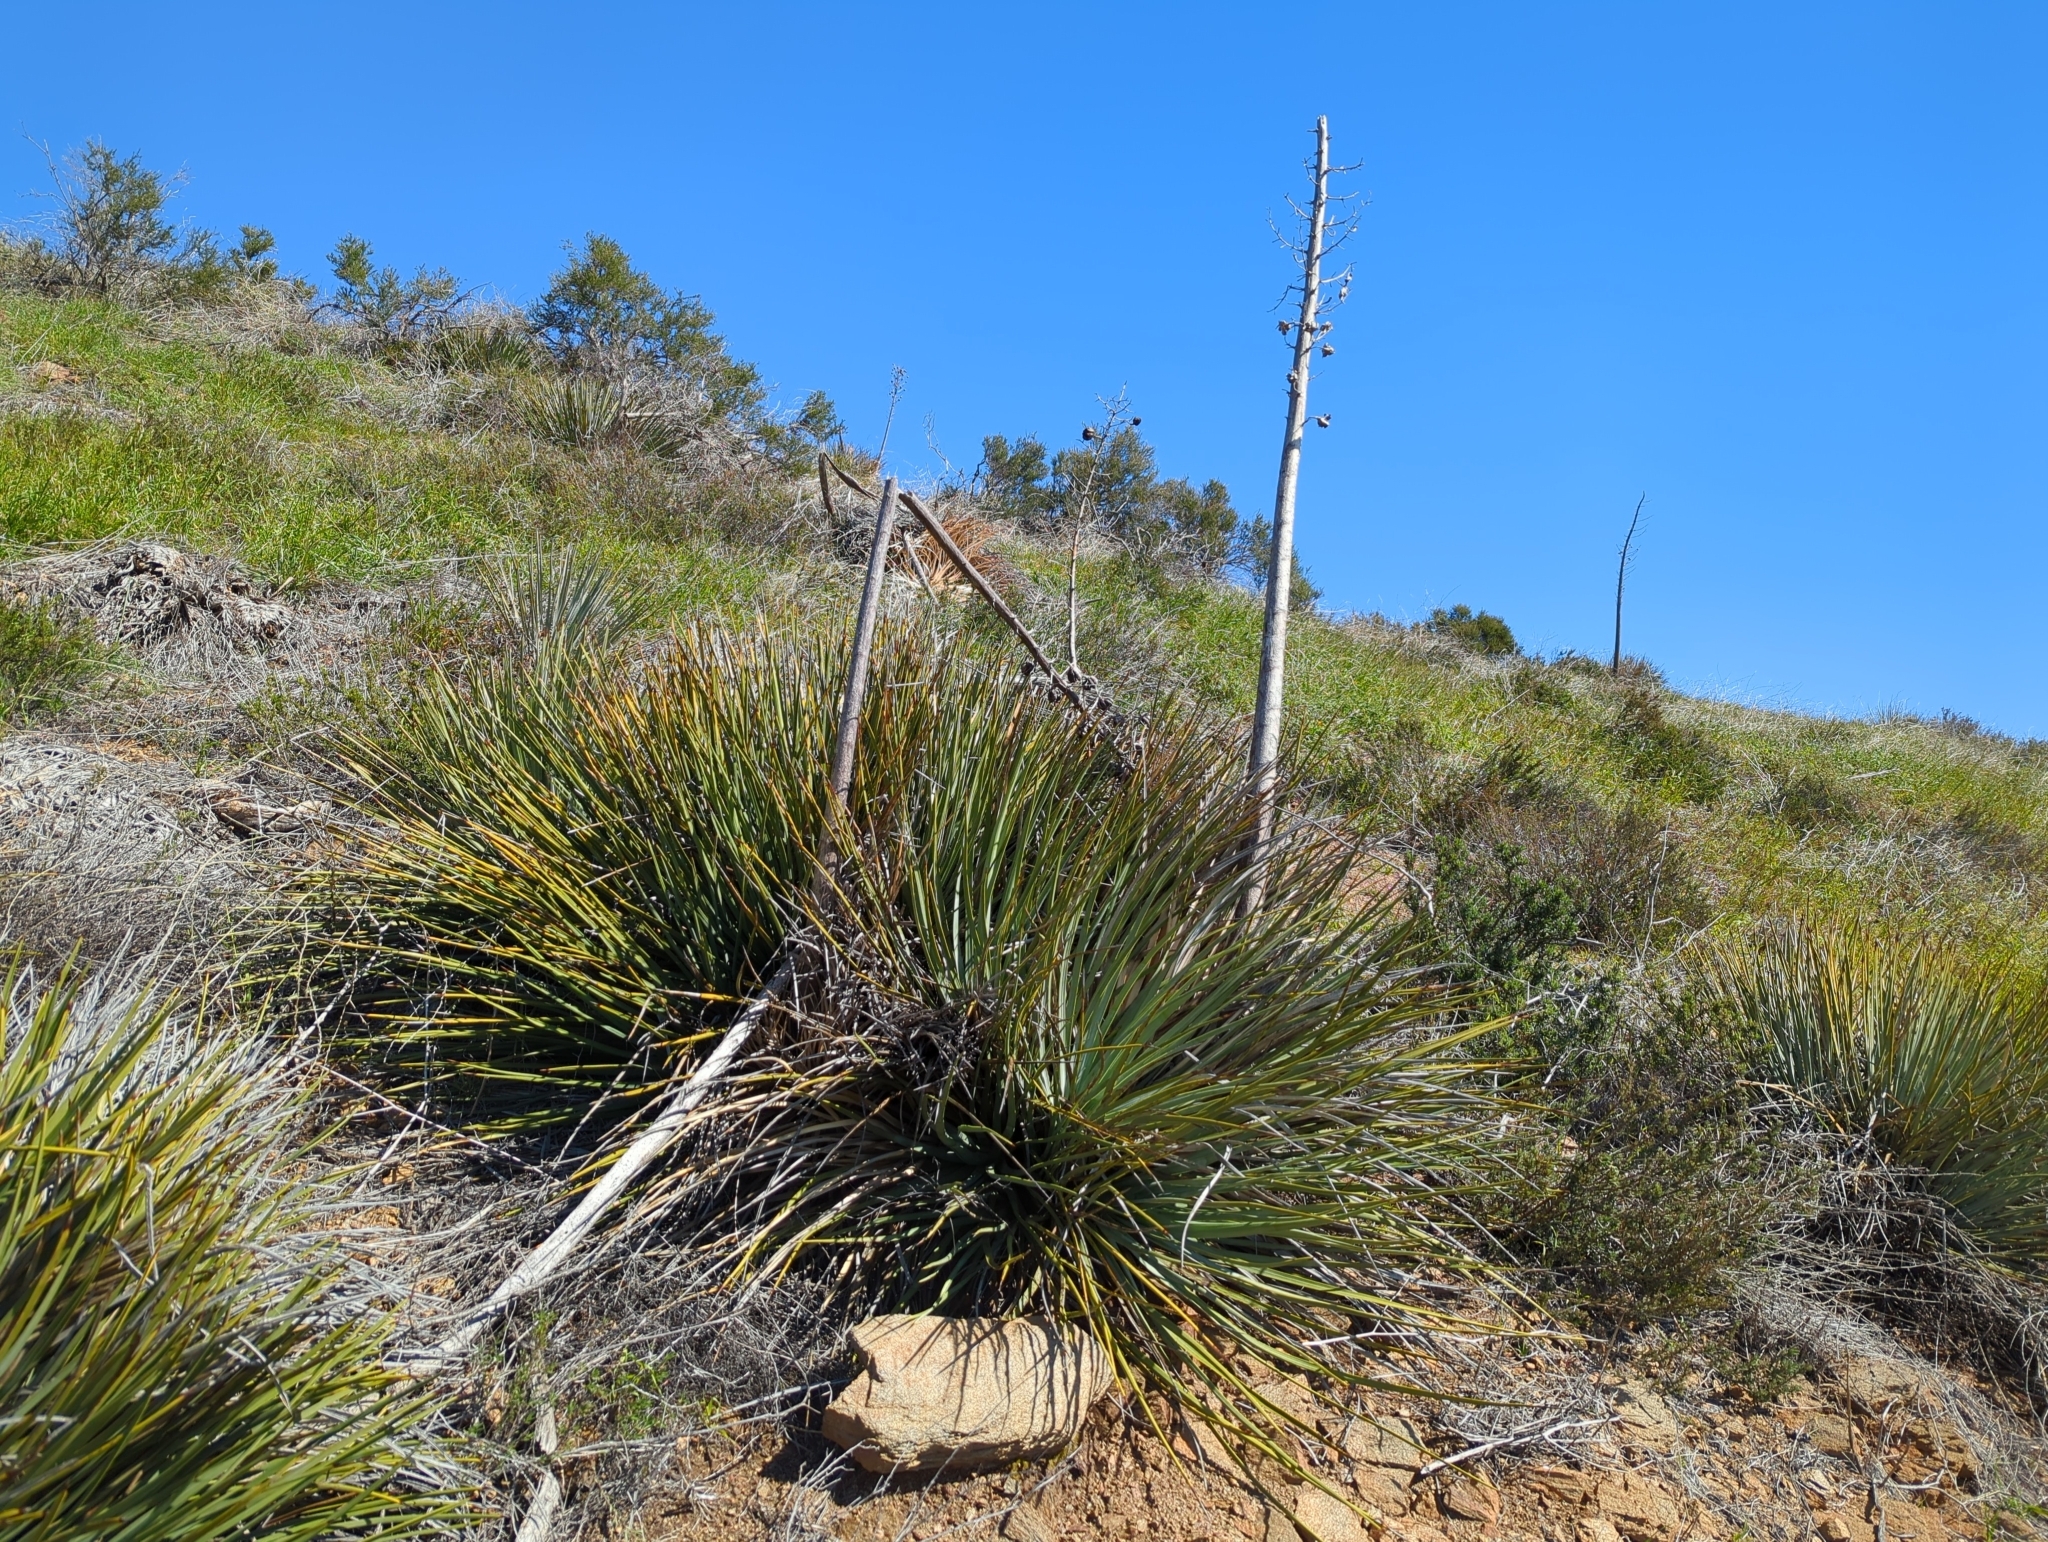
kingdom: Plantae
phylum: Tracheophyta
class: Liliopsida
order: Asparagales
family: Asparagaceae
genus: Hesperoyucca
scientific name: Hesperoyucca whipplei
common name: Our lord's-candle
